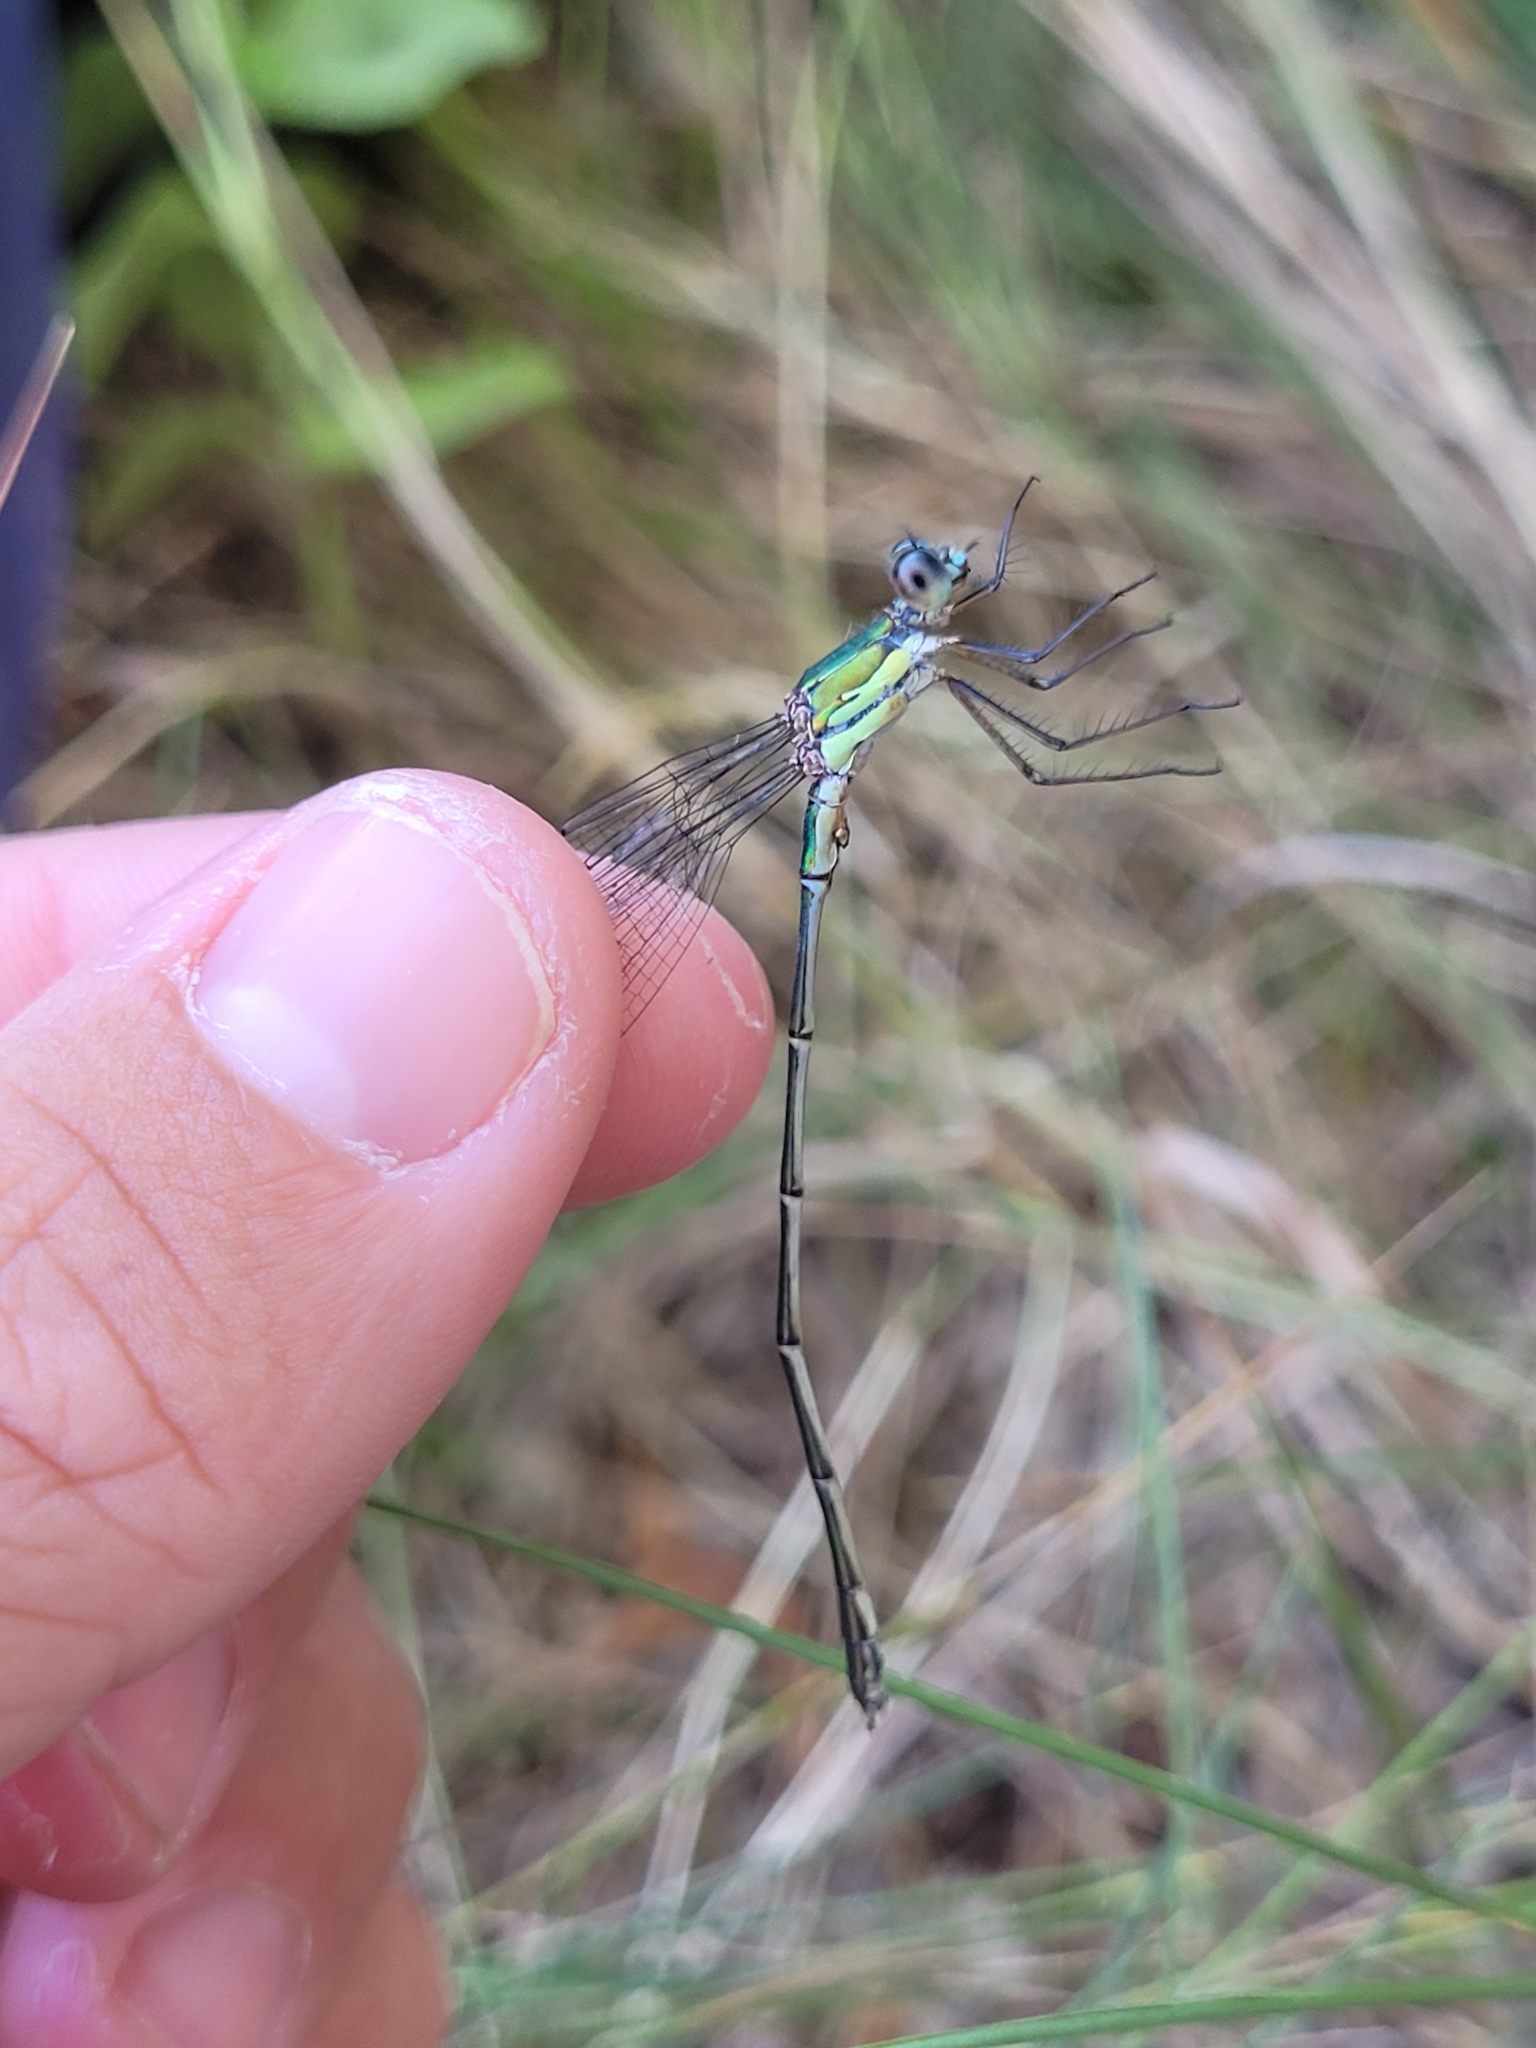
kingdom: Animalia
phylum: Arthropoda
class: Insecta
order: Odonata
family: Lestidae
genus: Chalcolestes
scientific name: Chalcolestes viridis
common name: Green emerald damselfly
